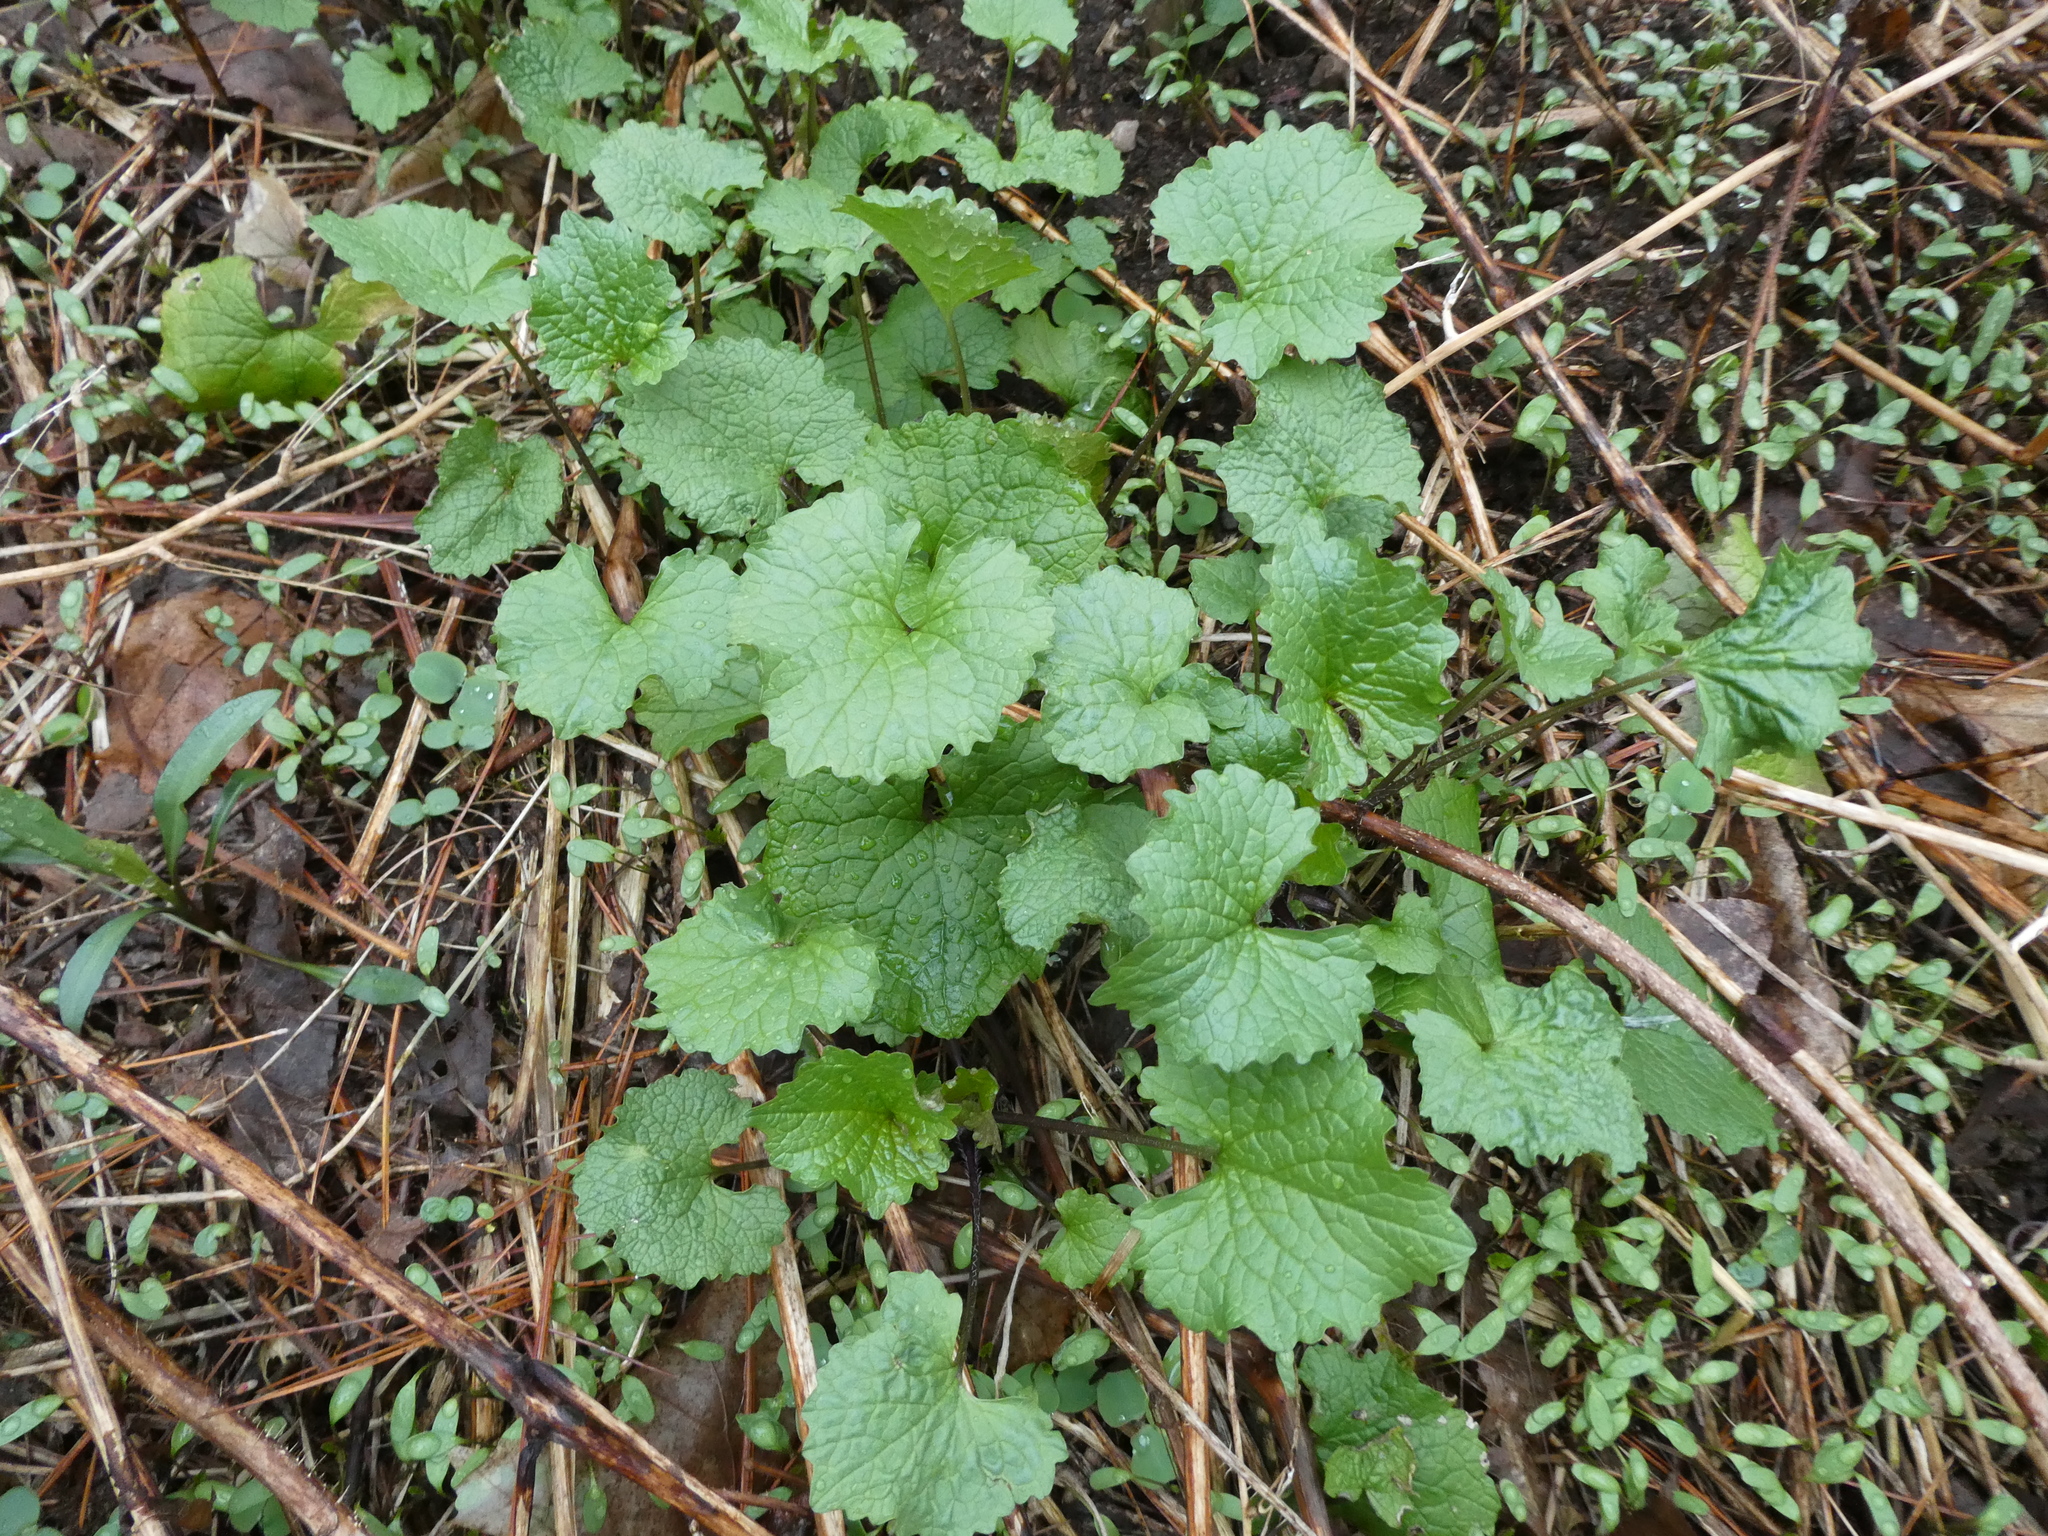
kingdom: Plantae
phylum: Tracheophyta
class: Magnoliopsida
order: Brassicales
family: Brassicaceae
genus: Alliaria
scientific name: Alliaria petiolata
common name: Garlic mustard
